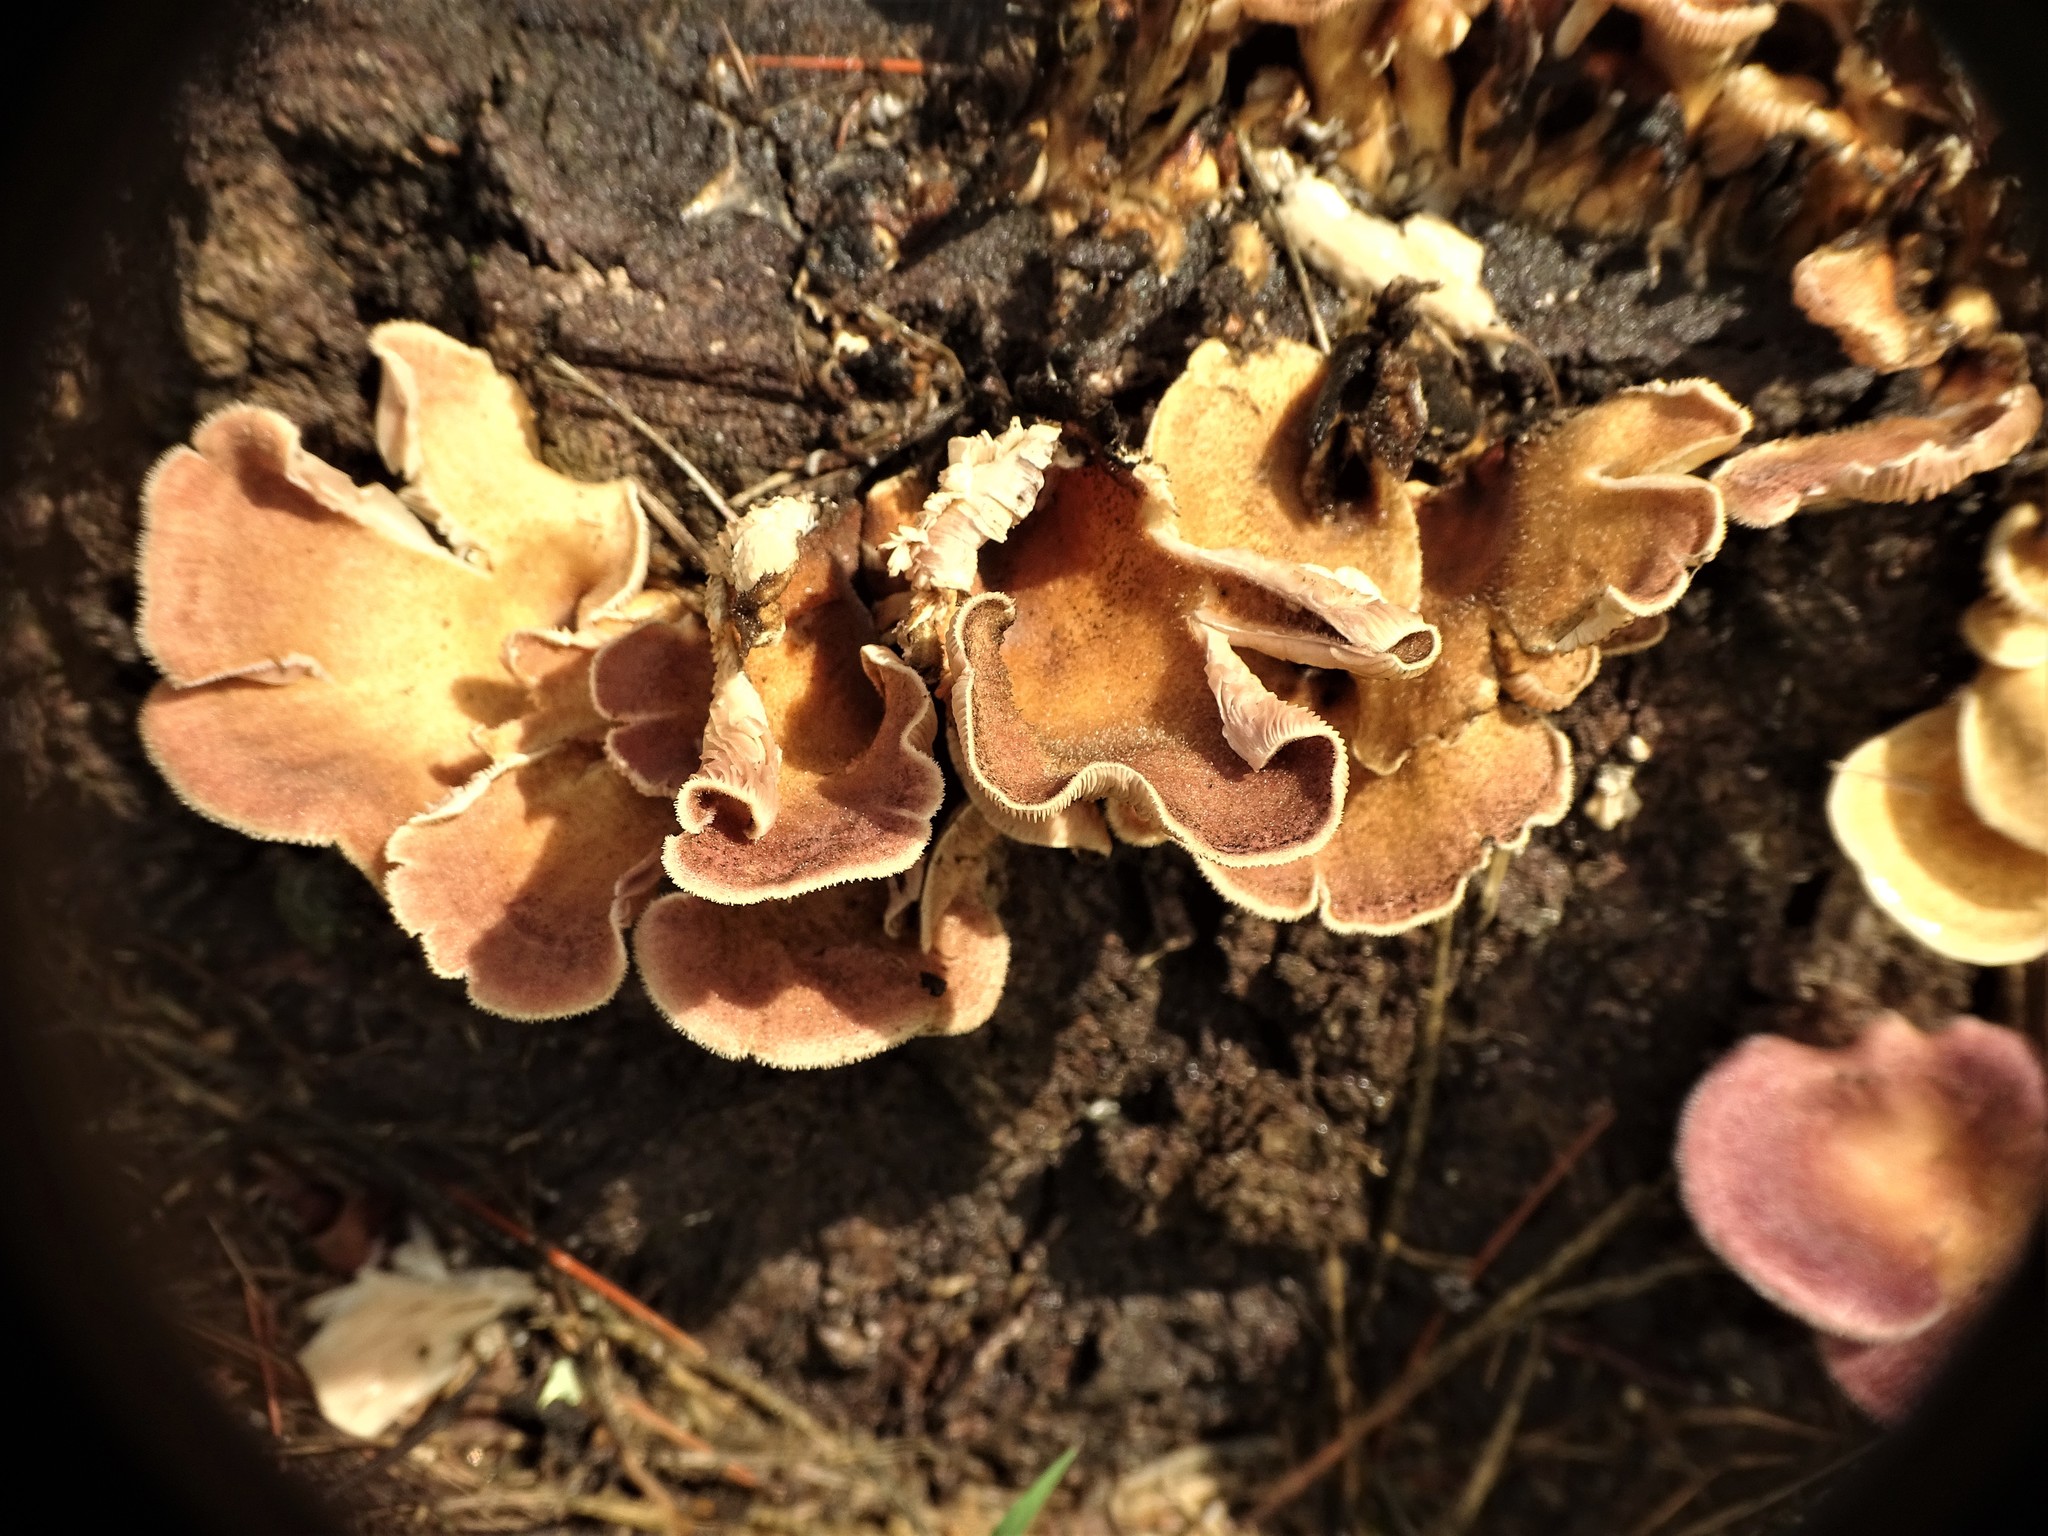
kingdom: Fungi
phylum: Basidiomycota
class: Agaricomycetes
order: Polyporales
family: Panaceae
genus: Panus
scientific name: Panus neostrigosus
